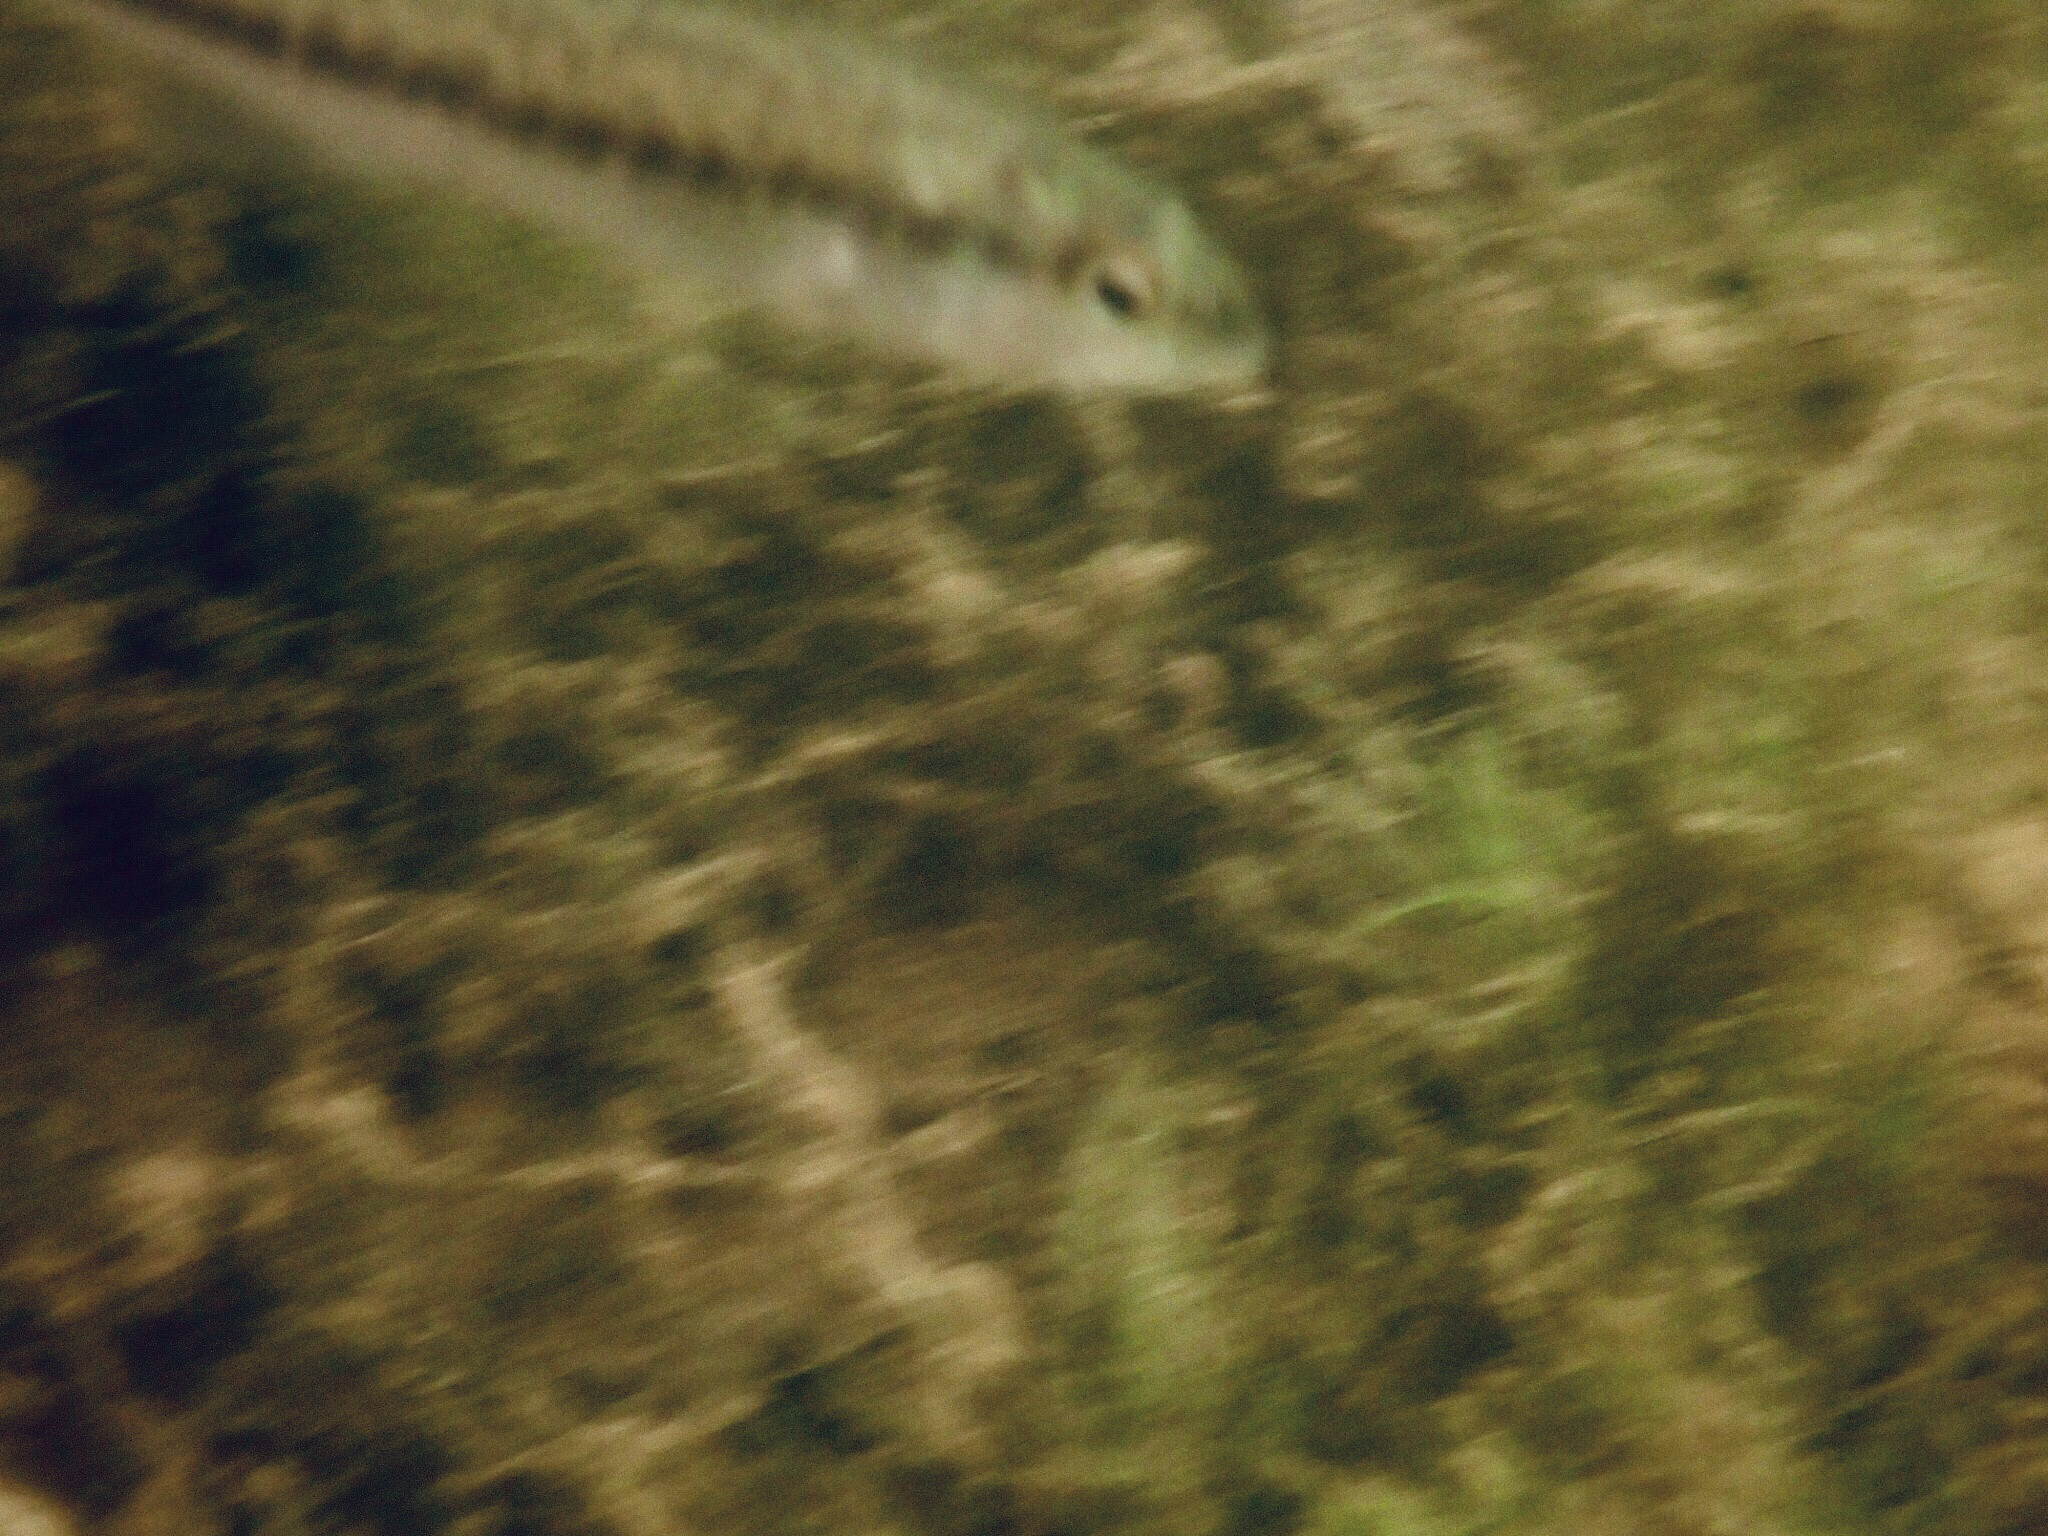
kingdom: Animalia
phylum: Chordata
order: Perciformes
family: Centrarchidae
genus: Micropterus
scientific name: Micropterus
